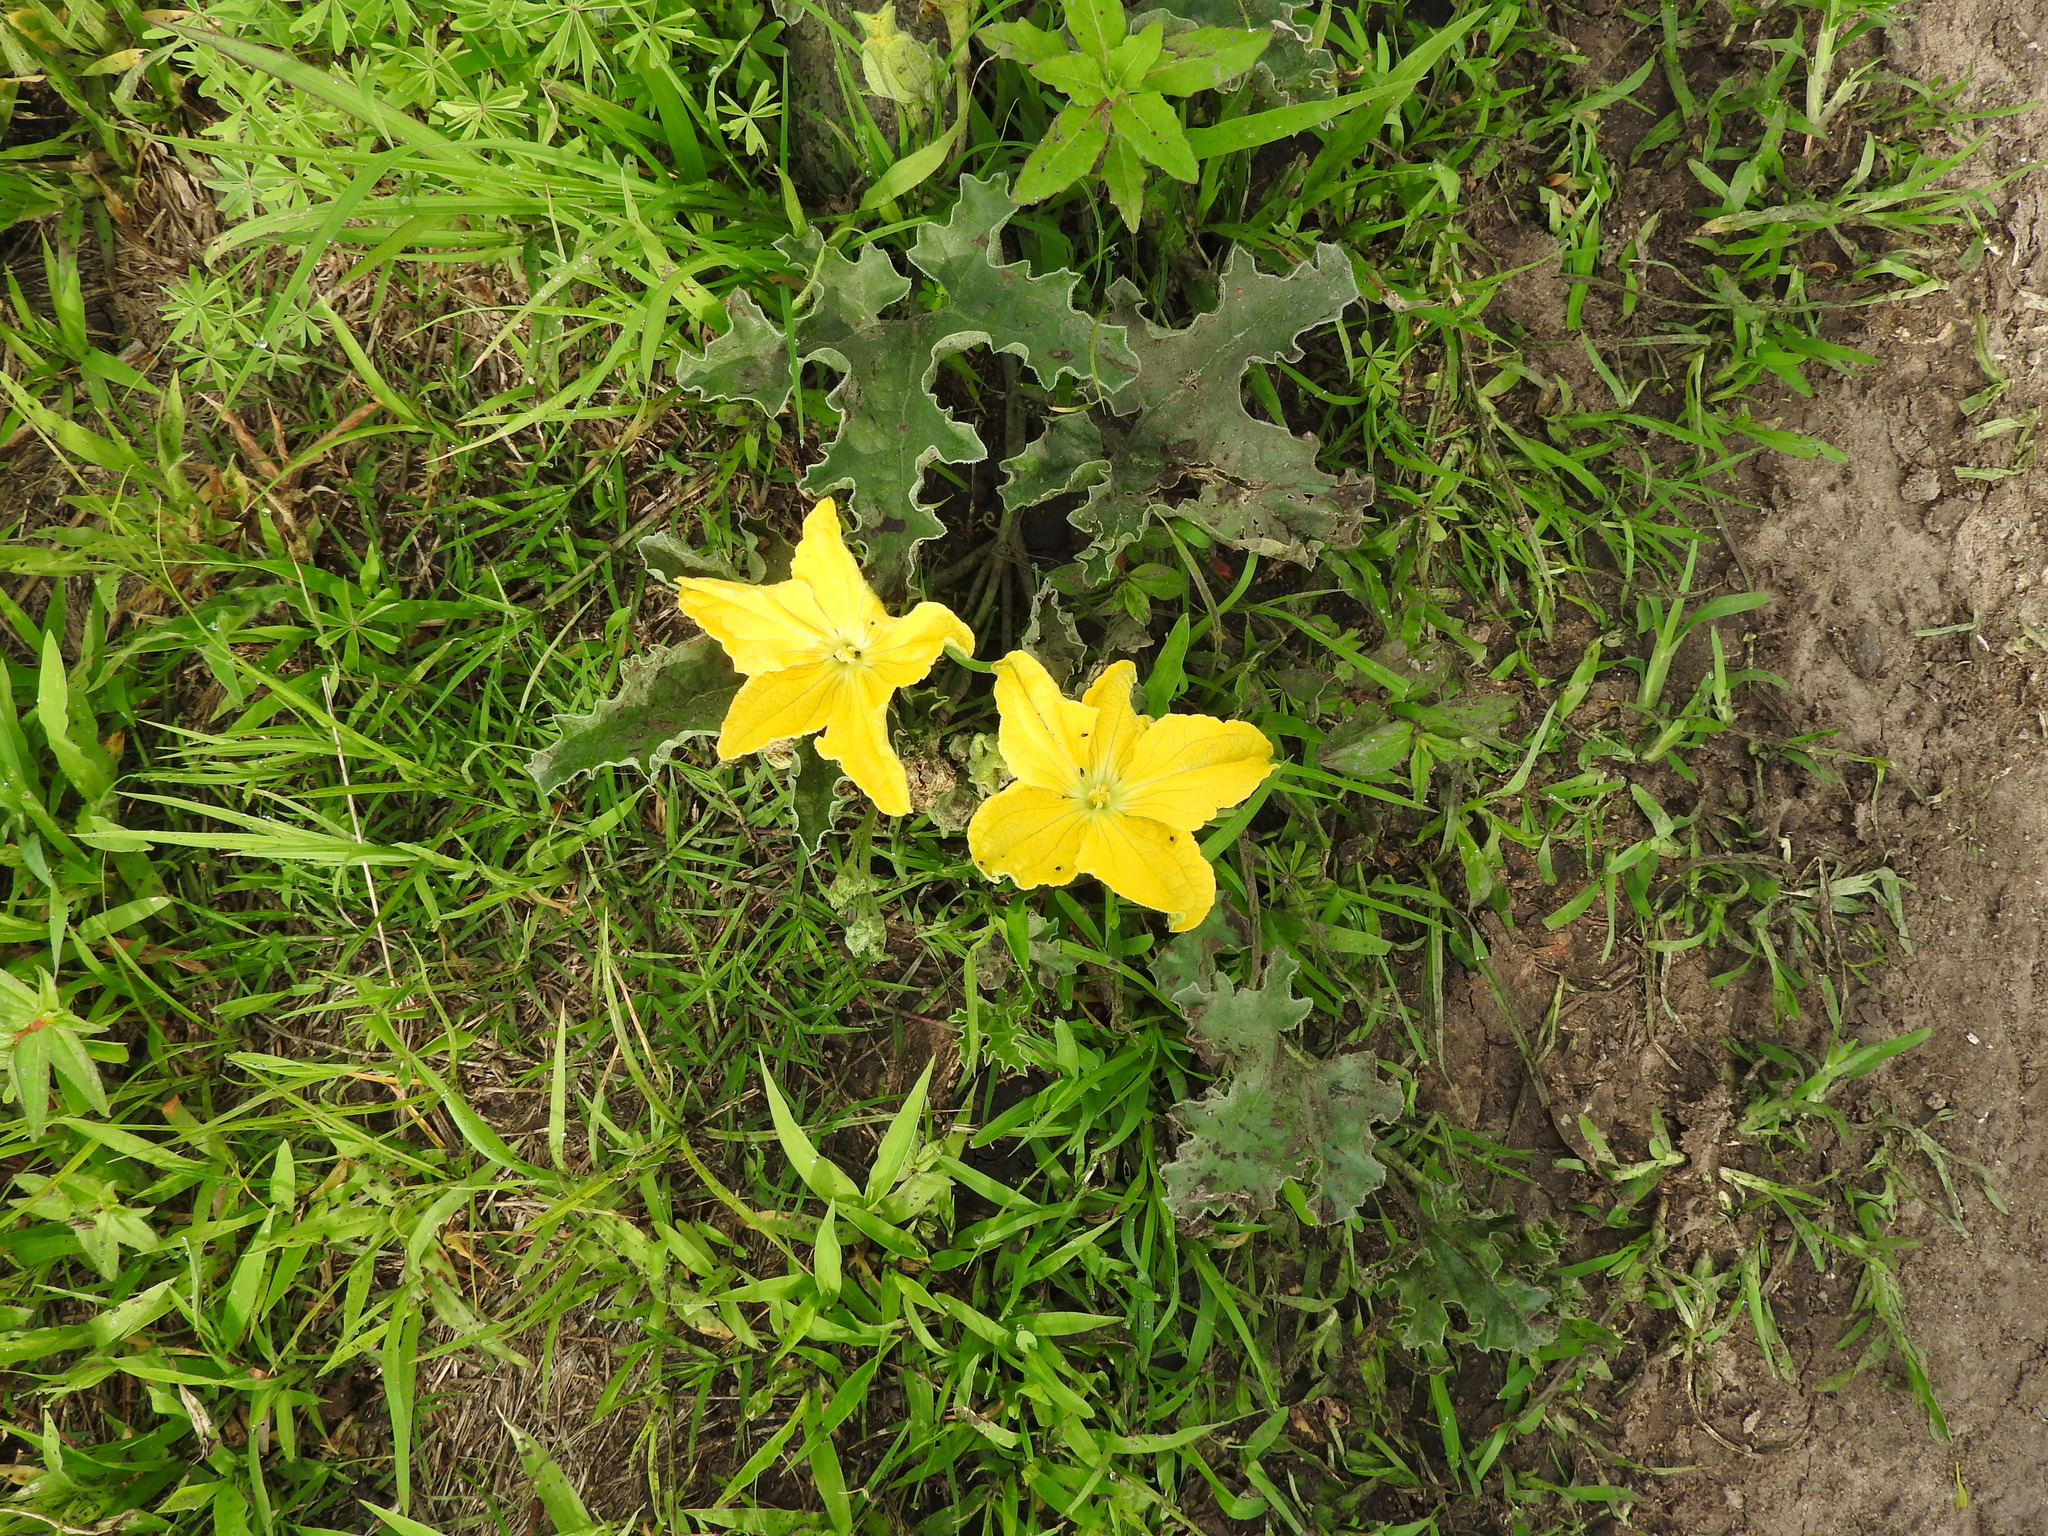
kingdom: Plantae
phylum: Tracheophyta
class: Magnoliopsida
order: Cucurbitales
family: Cucurbitaceae
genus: Apodanthera
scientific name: Apodanthera aspera
